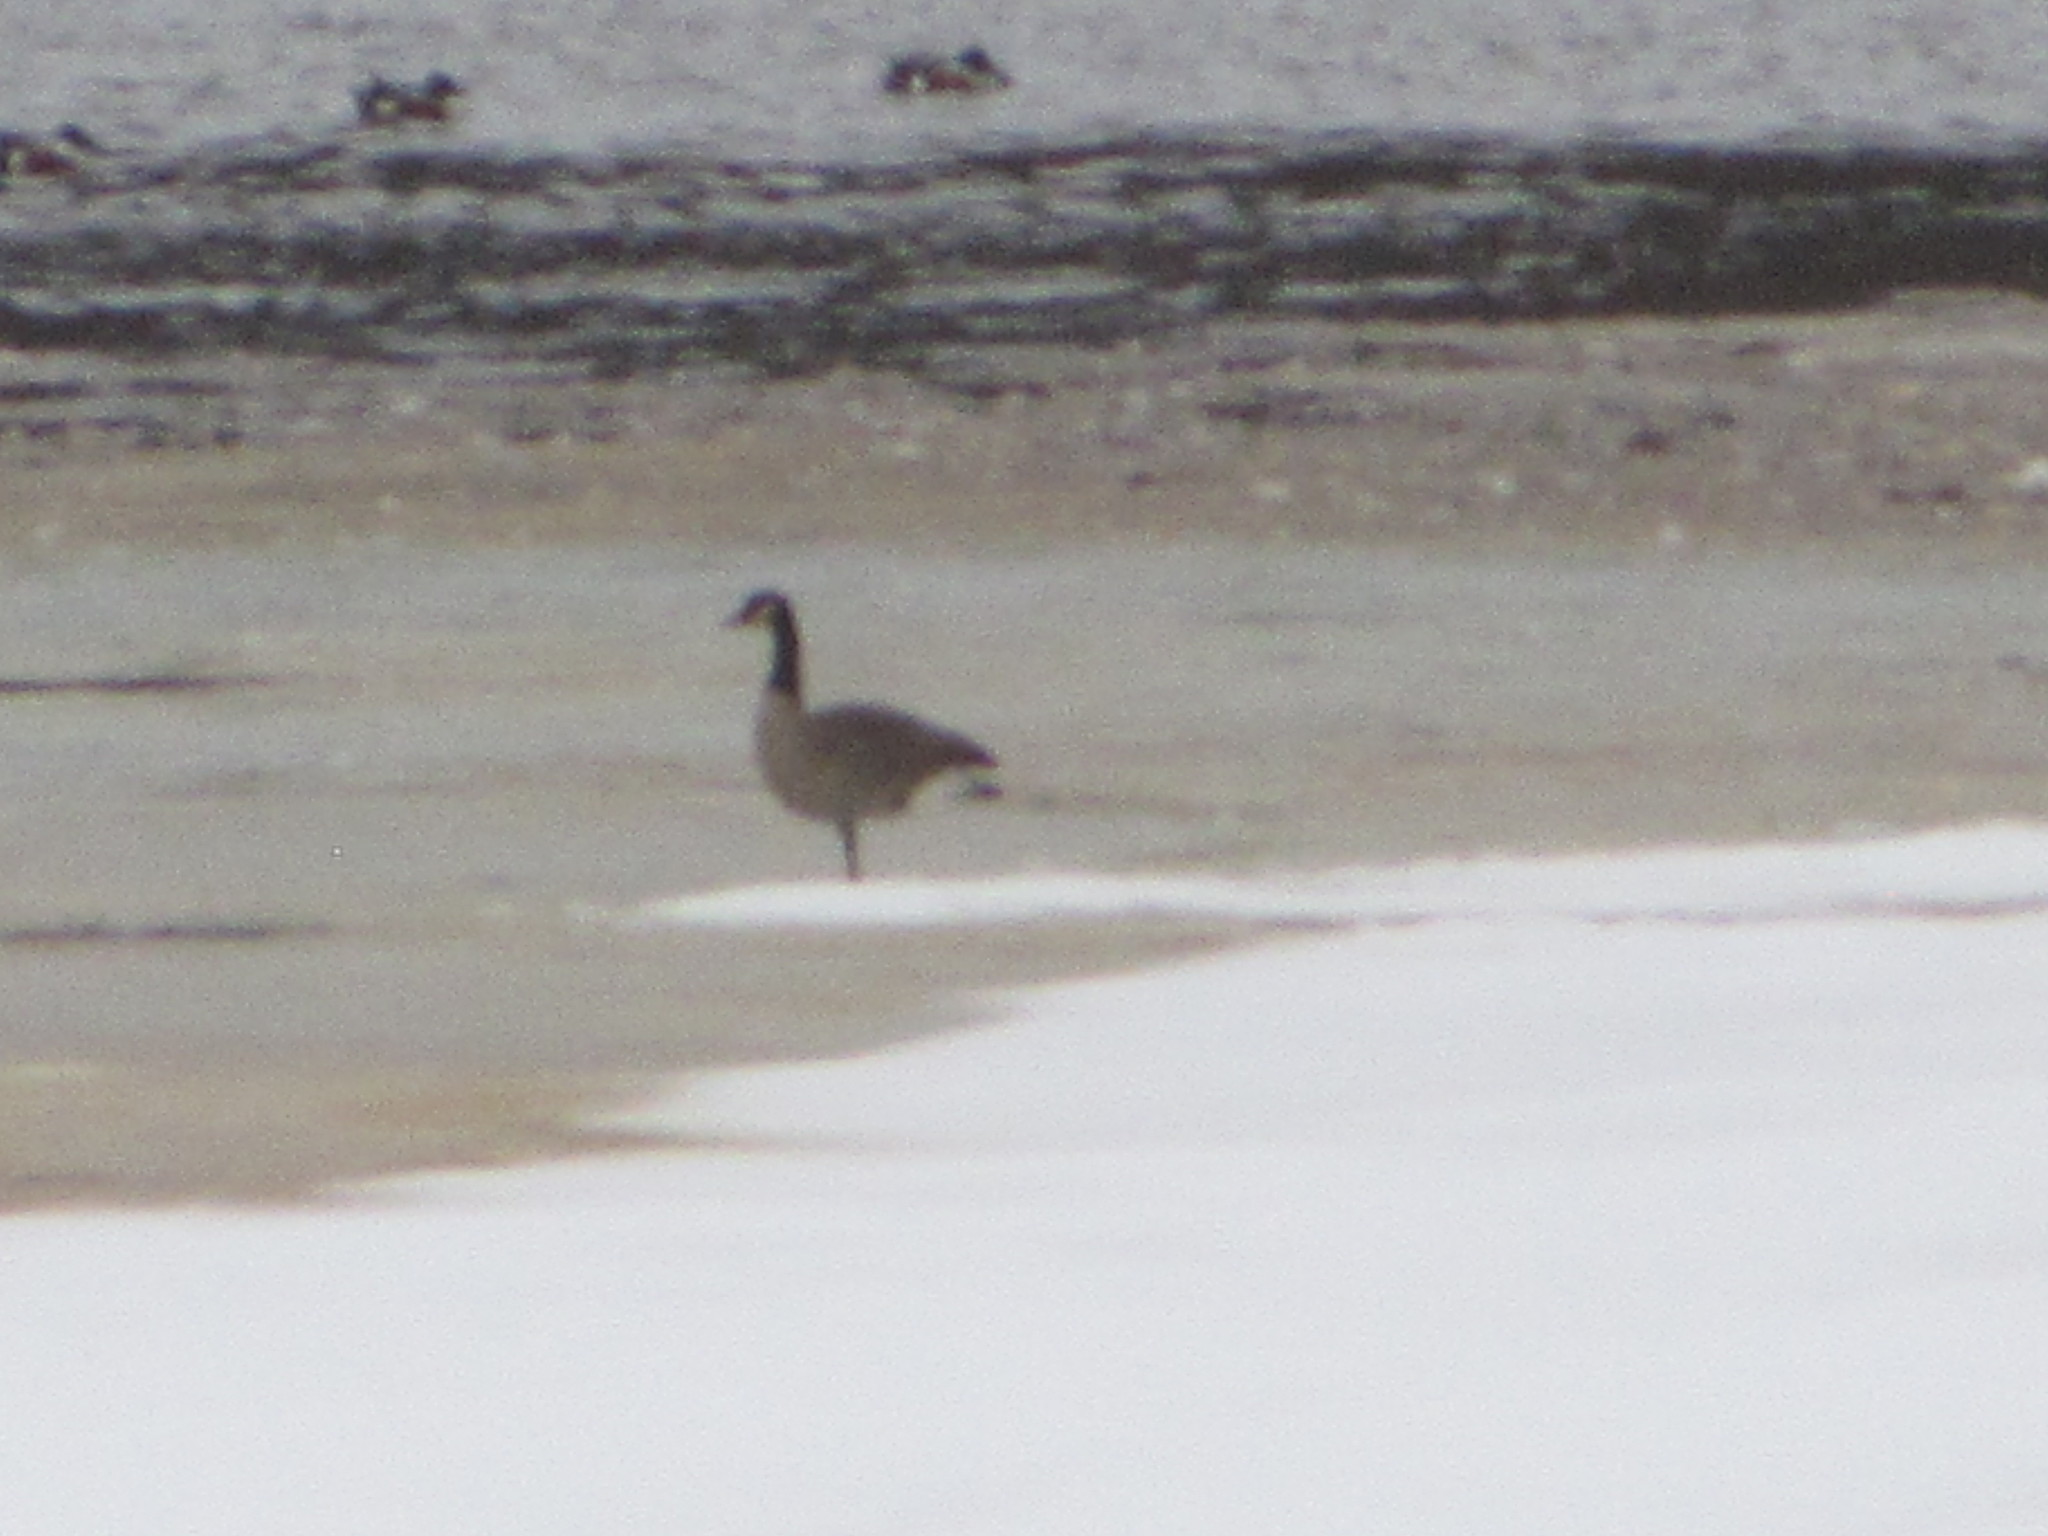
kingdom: Animalia
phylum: Chordata
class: Aves
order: Anseriformes
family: Anatidae
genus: Branta
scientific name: Branta canadensis
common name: Canada goose
